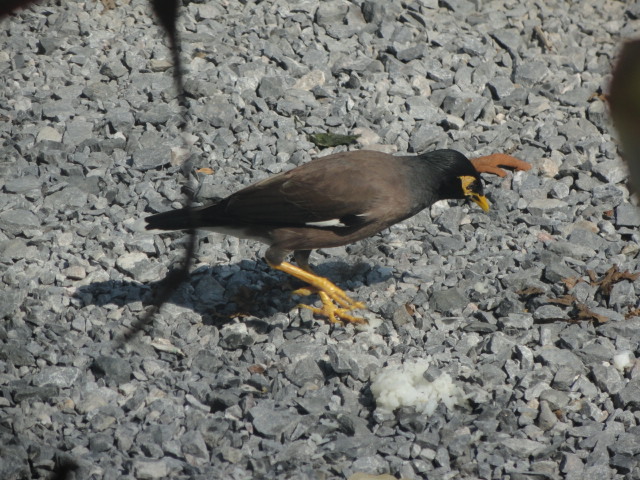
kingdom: Animalia
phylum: Chordata
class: Aves
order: Passeriformes
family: Sturnidae
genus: Acridotheres
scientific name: Acridotheres tristis
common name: Common myna
